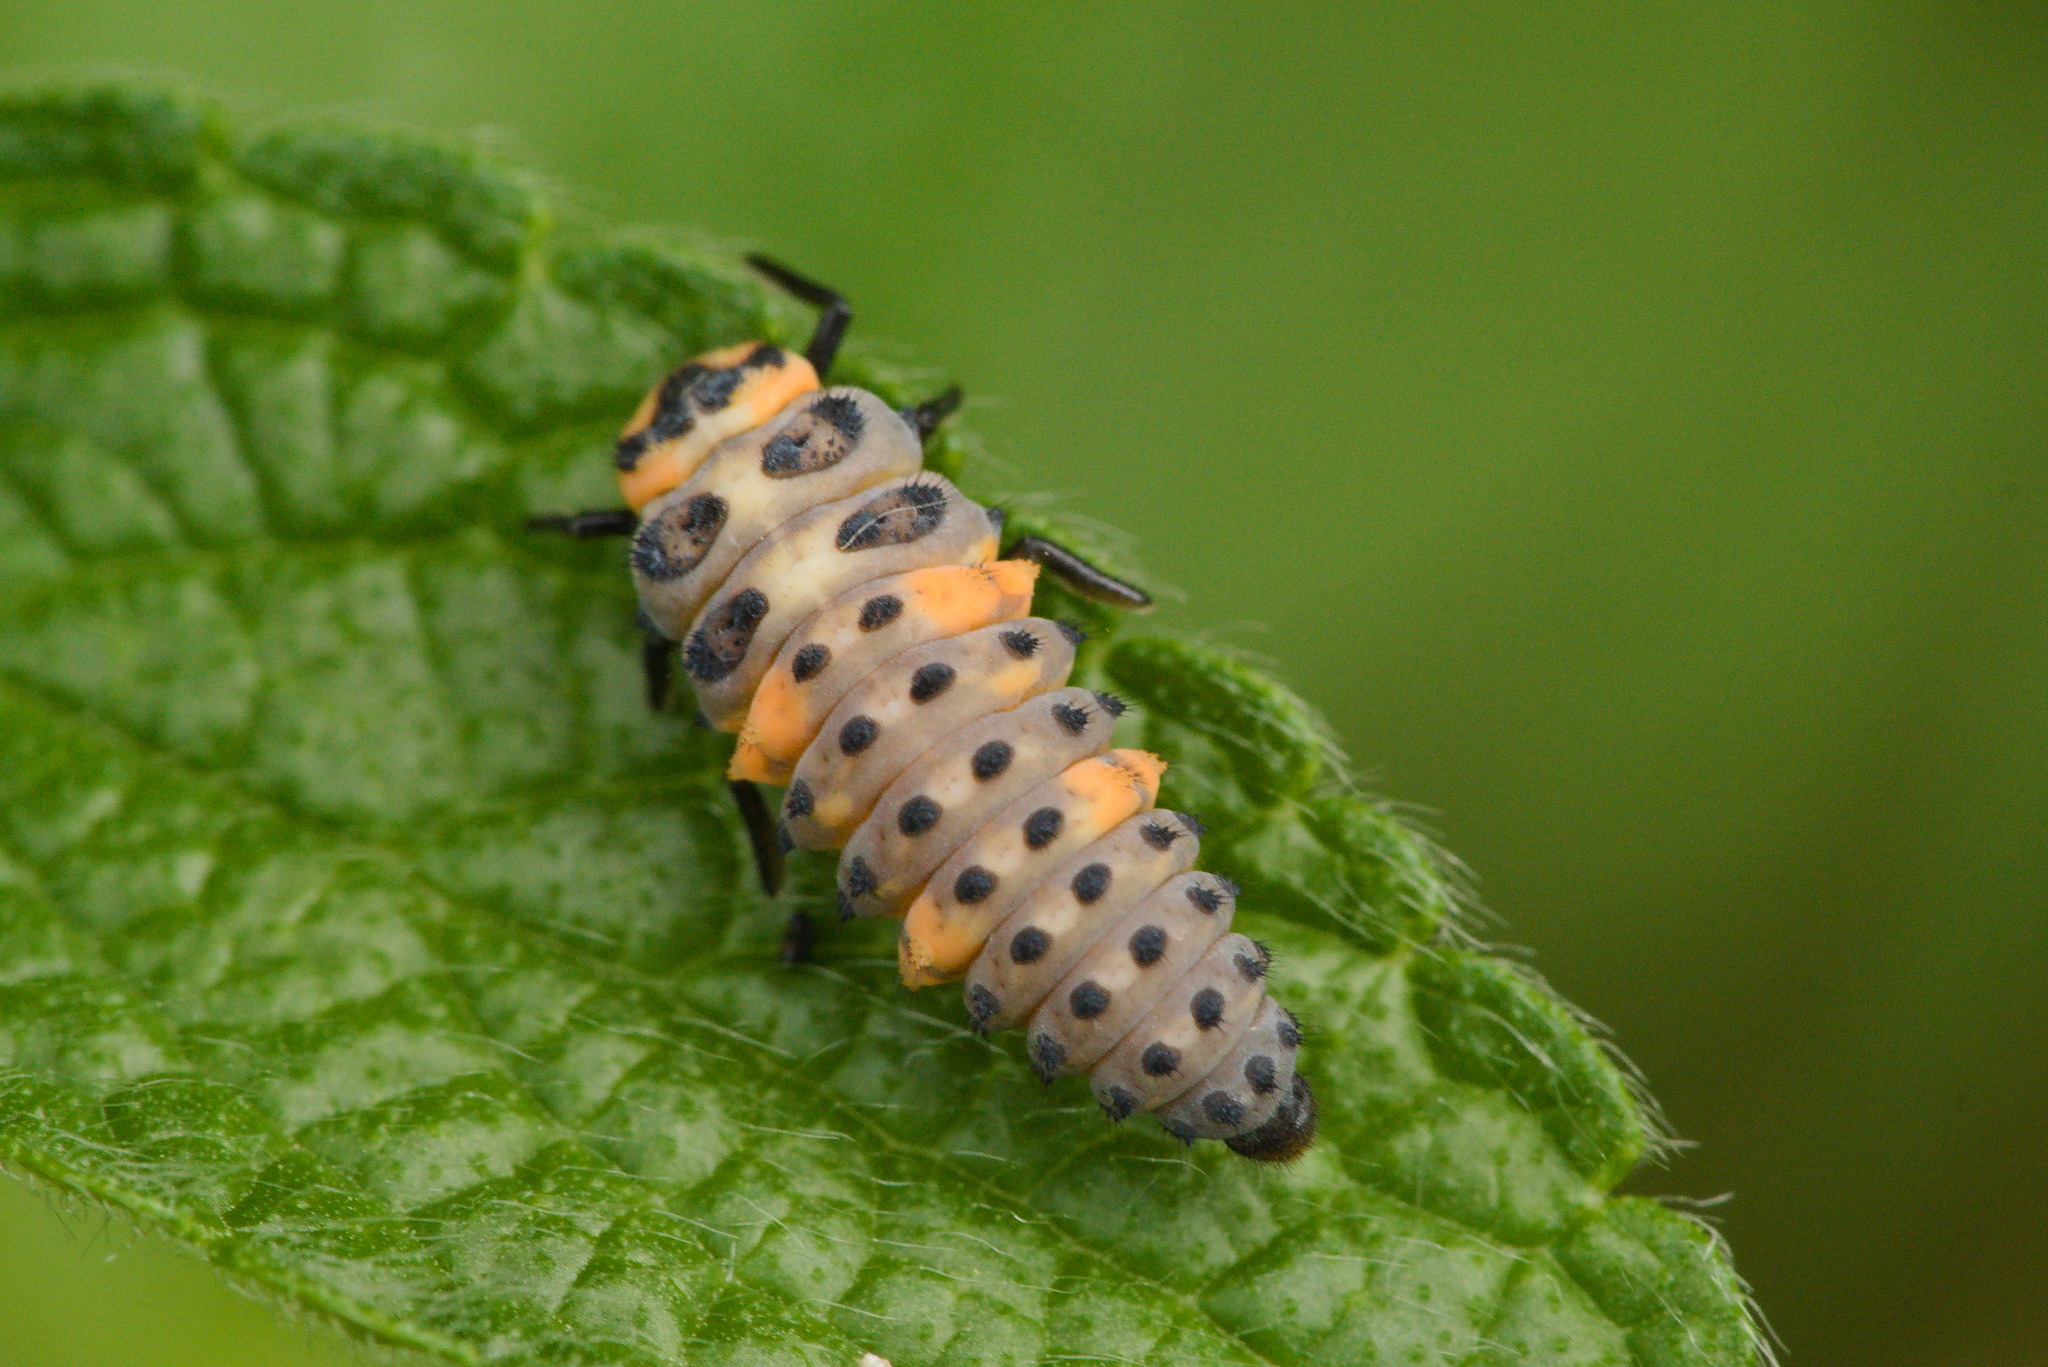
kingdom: Animalia
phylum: Arthropoda
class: Insecta
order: Coleoptera
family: Coccinellidae
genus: Coccinella
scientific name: Coccinella septempunctata
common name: Sevenspotted lady beetle
